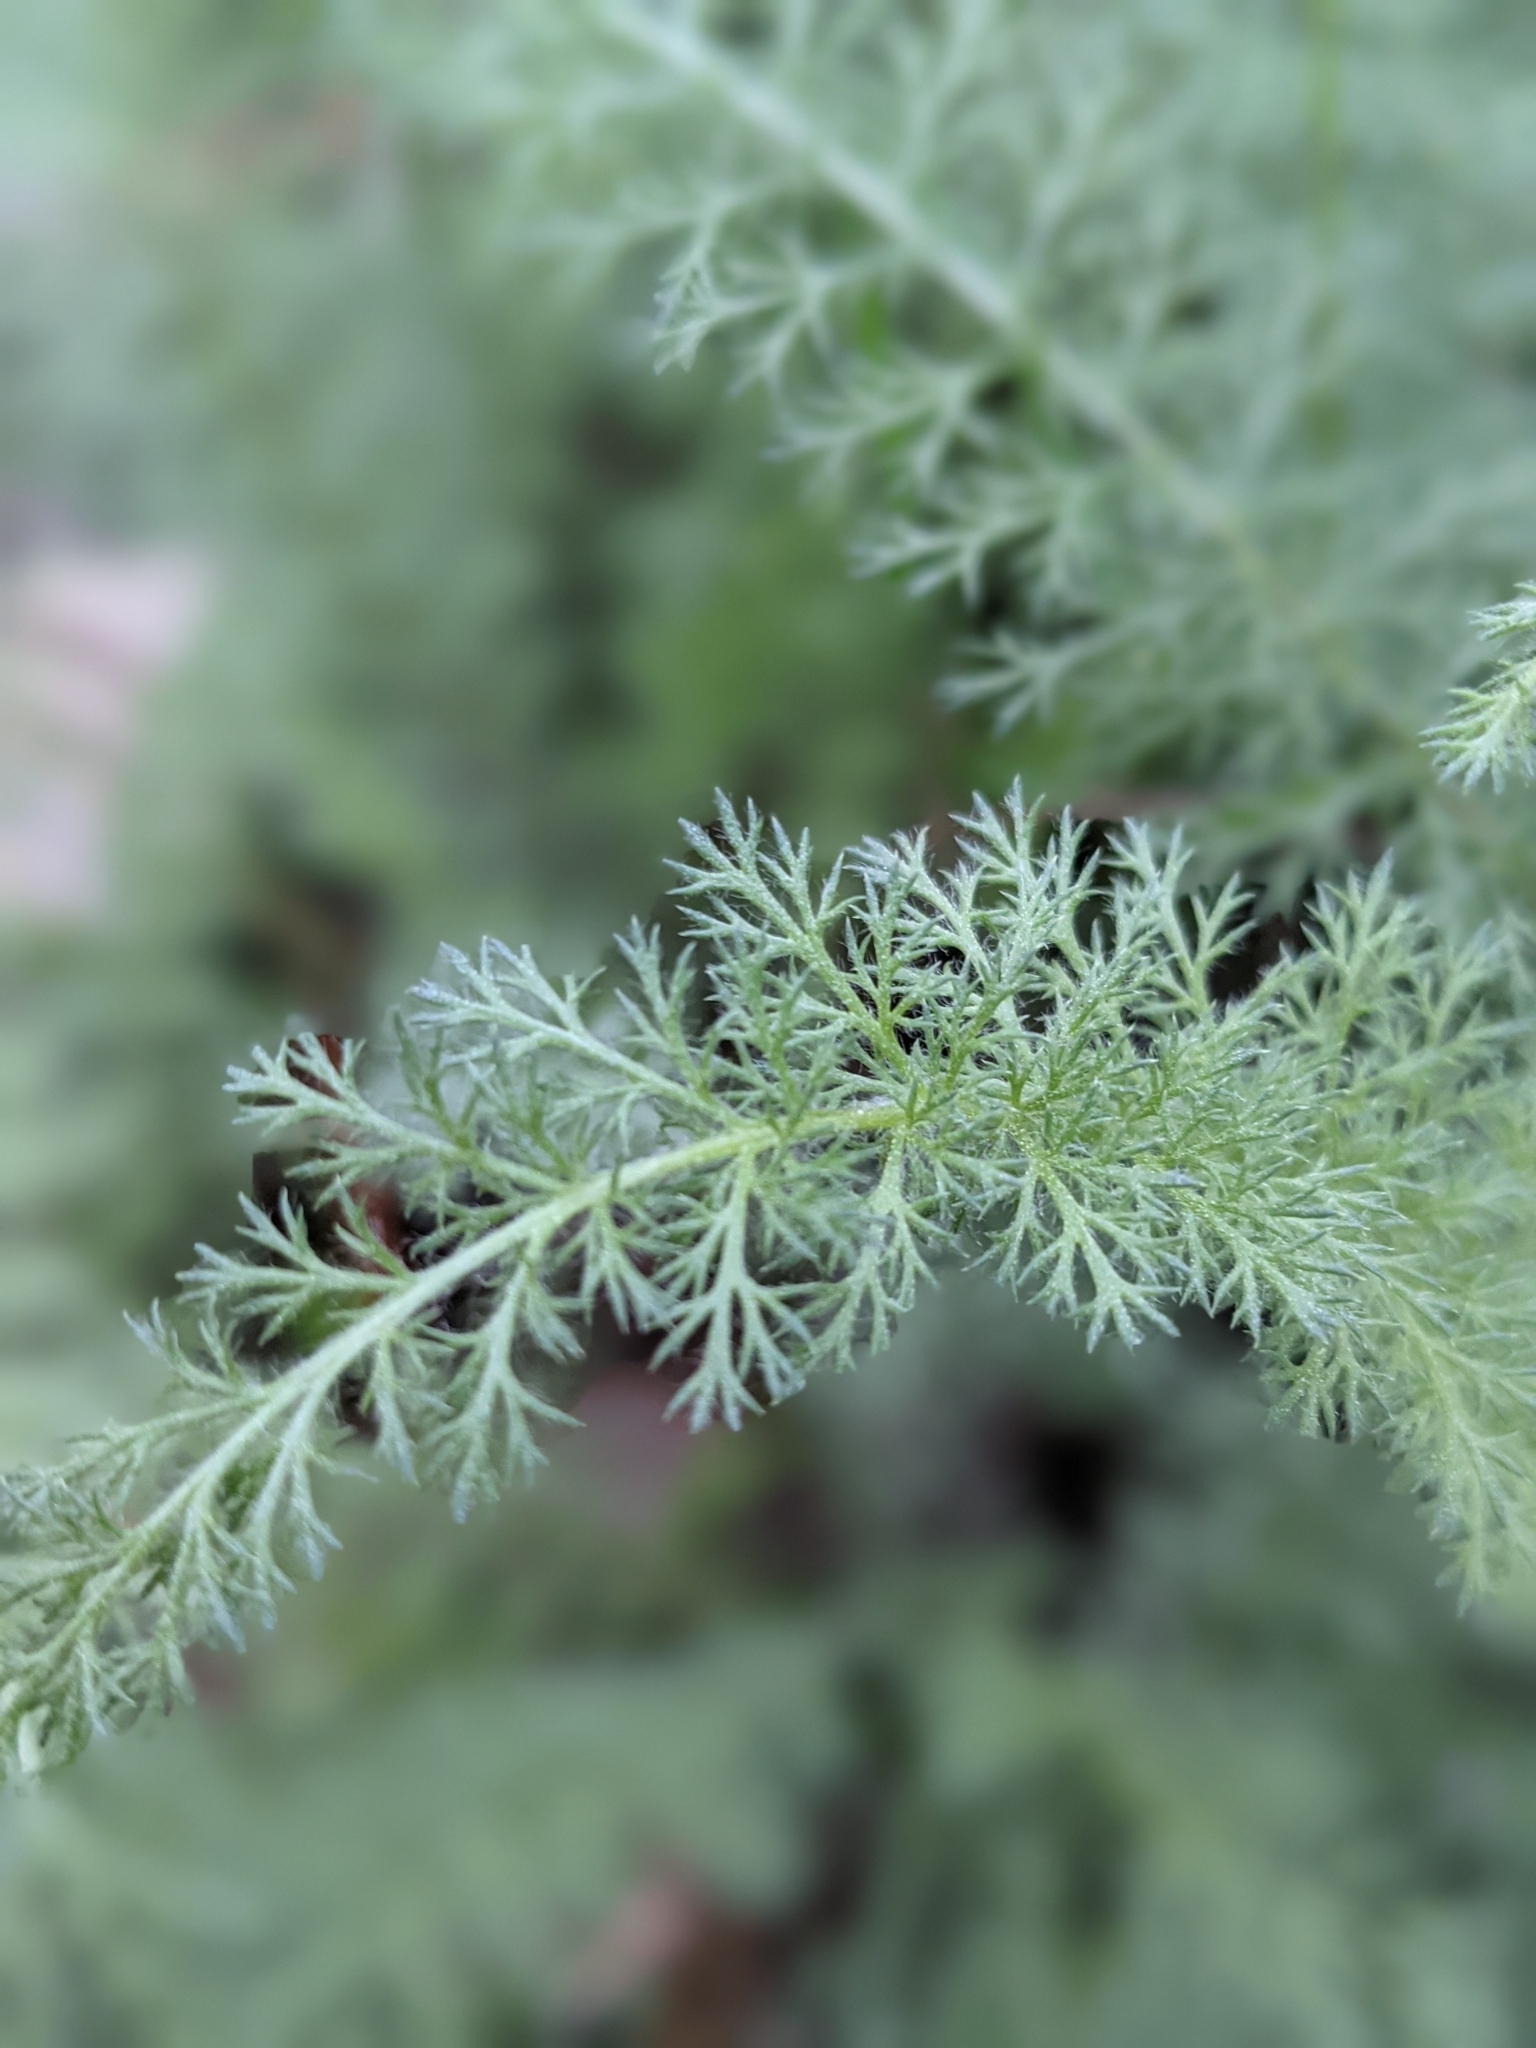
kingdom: Plantae
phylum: Tracheophyta
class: Magnoliopsida
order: Asterales
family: Asteraceae
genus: Achillea
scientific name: Achillea millefolium
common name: Yarrow
